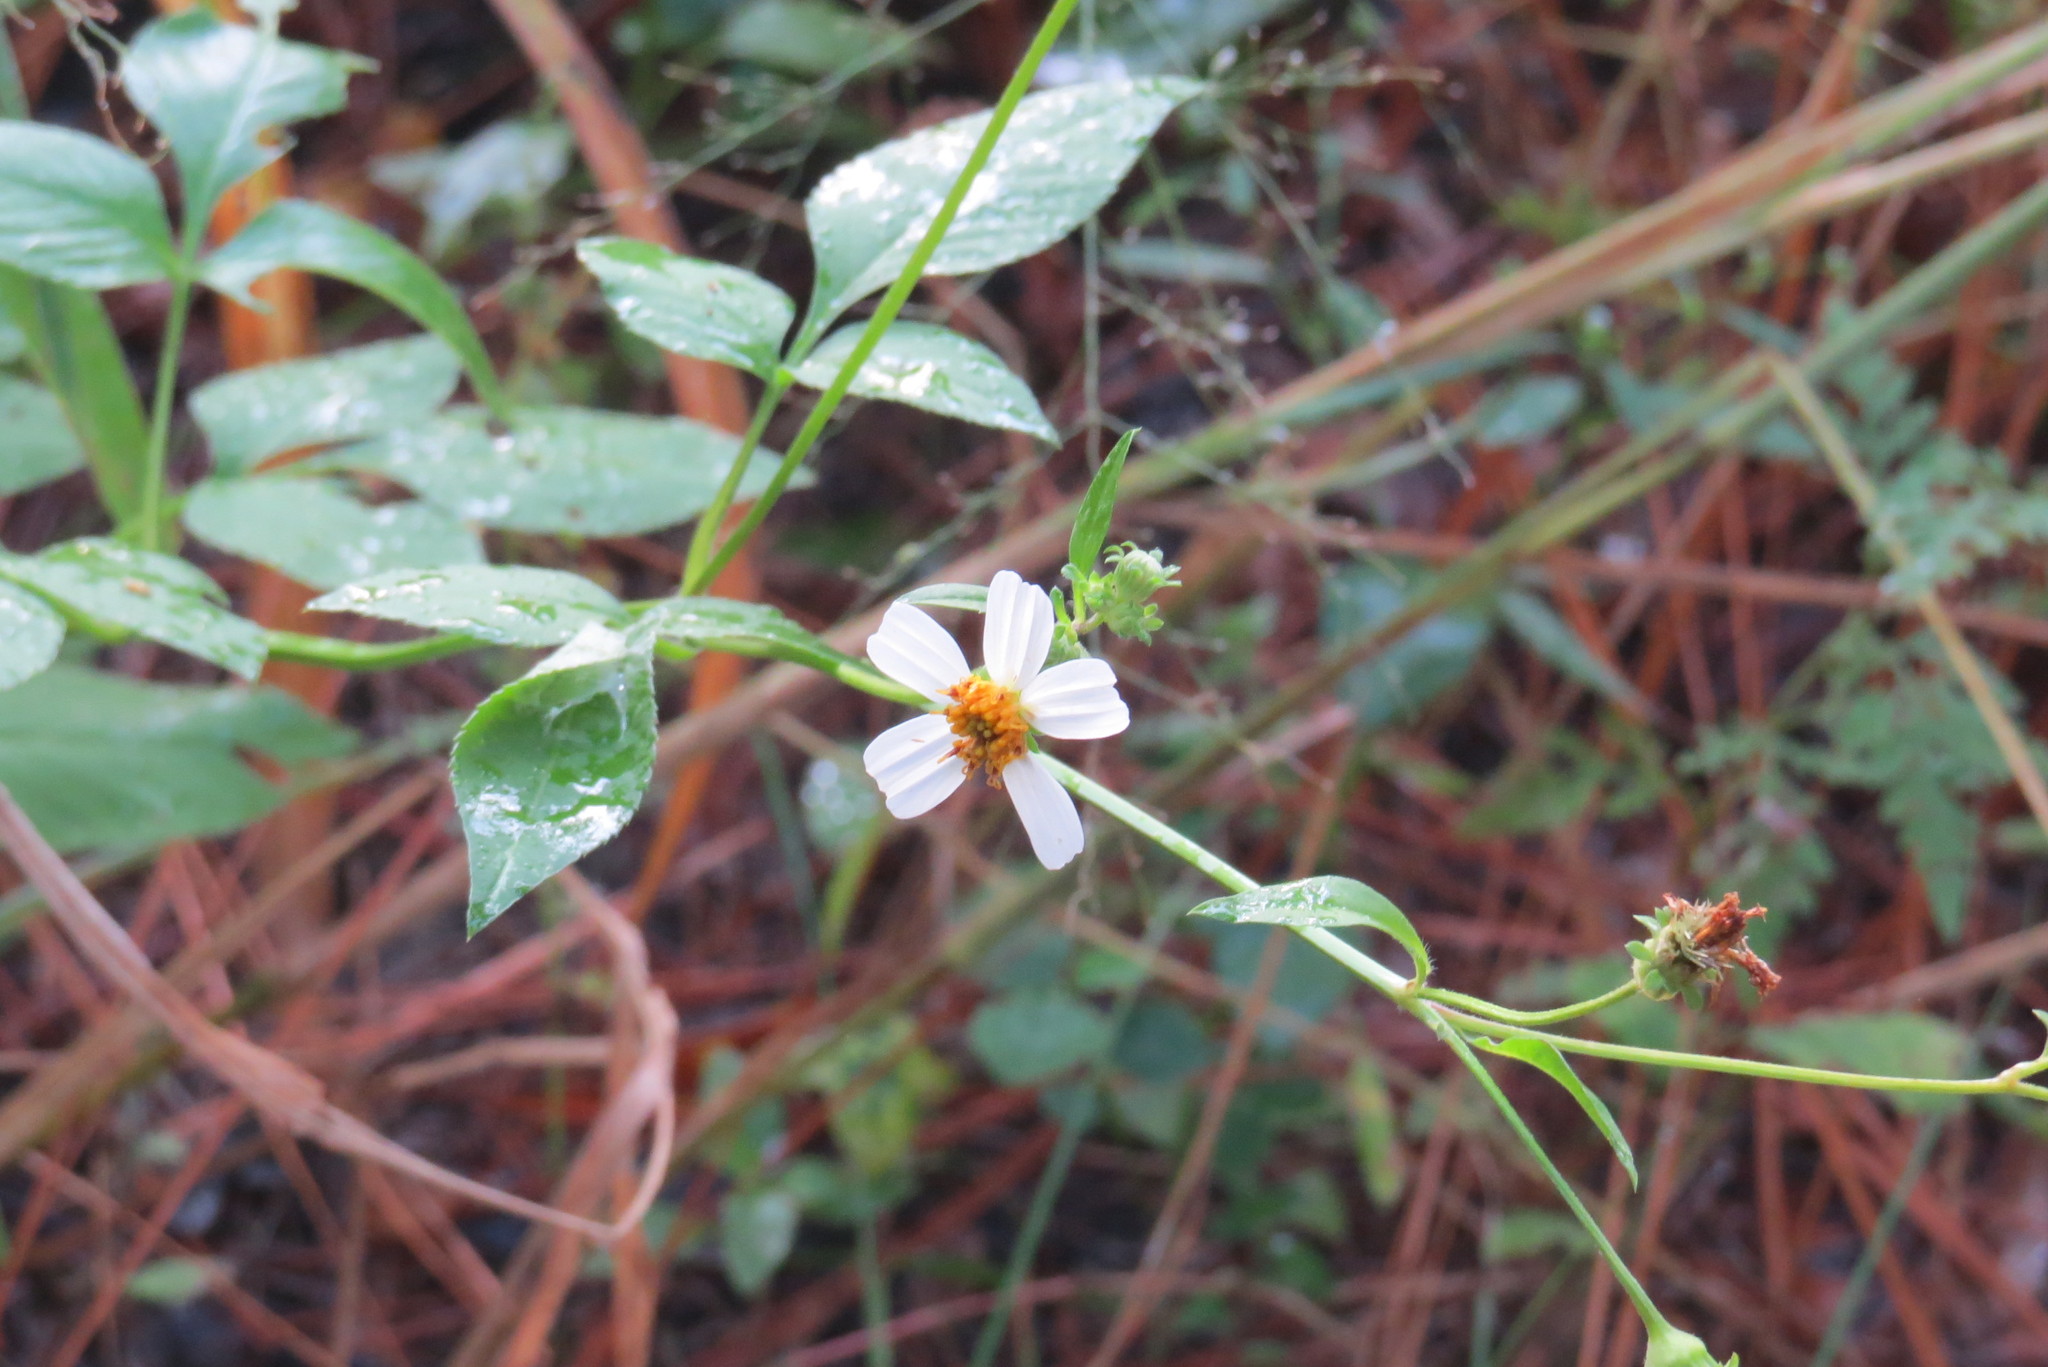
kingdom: Plantae
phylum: Tracheophyta
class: Magnoliopsida
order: Asterales
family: Asteraceae
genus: Bidens
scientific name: Bidens alba
